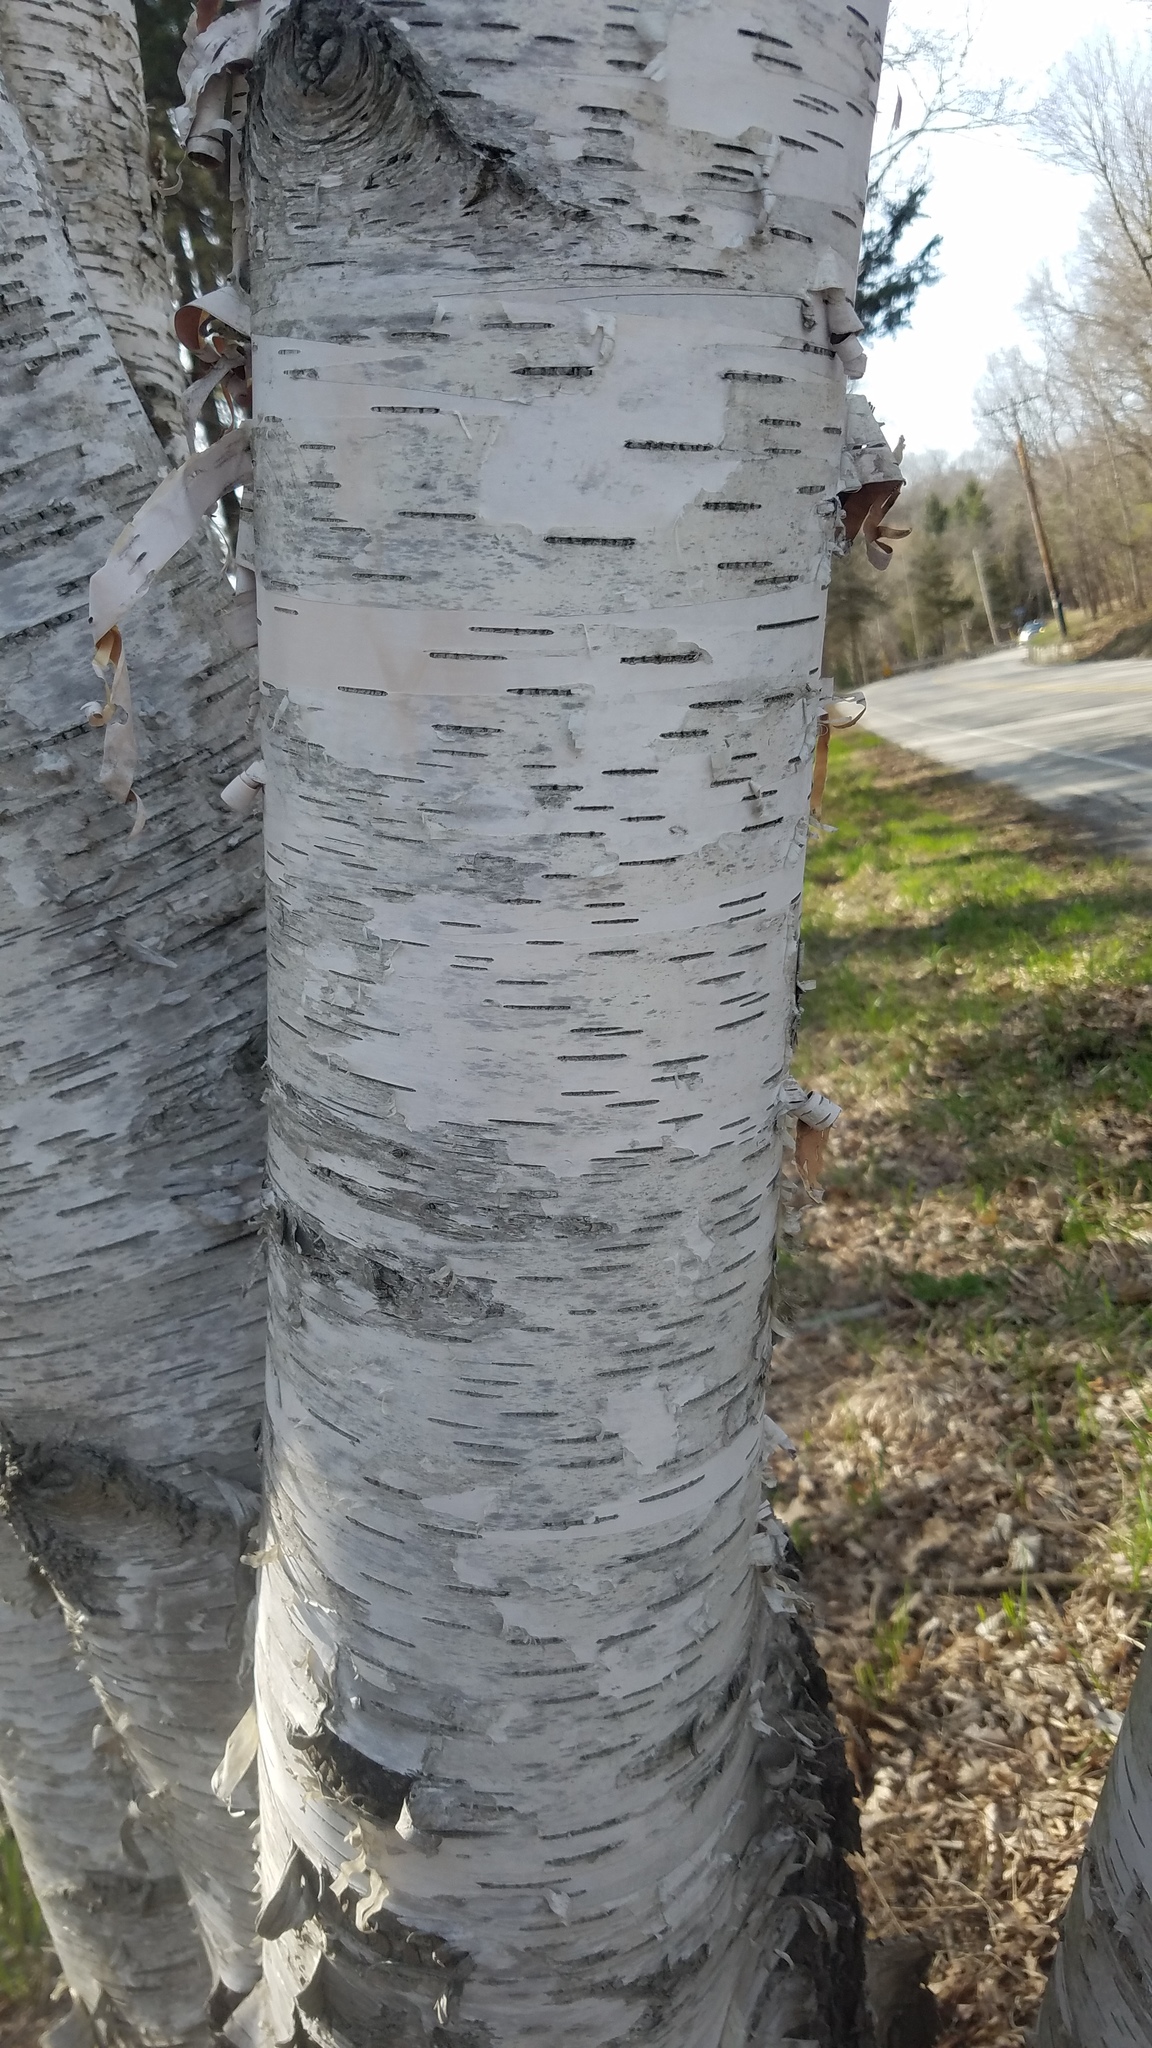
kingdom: Plantae
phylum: Tracheophyta
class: Magnoliopsida
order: Fagales
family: Betulaceae
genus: Betula
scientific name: Betula papyrifera
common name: Paper birch
